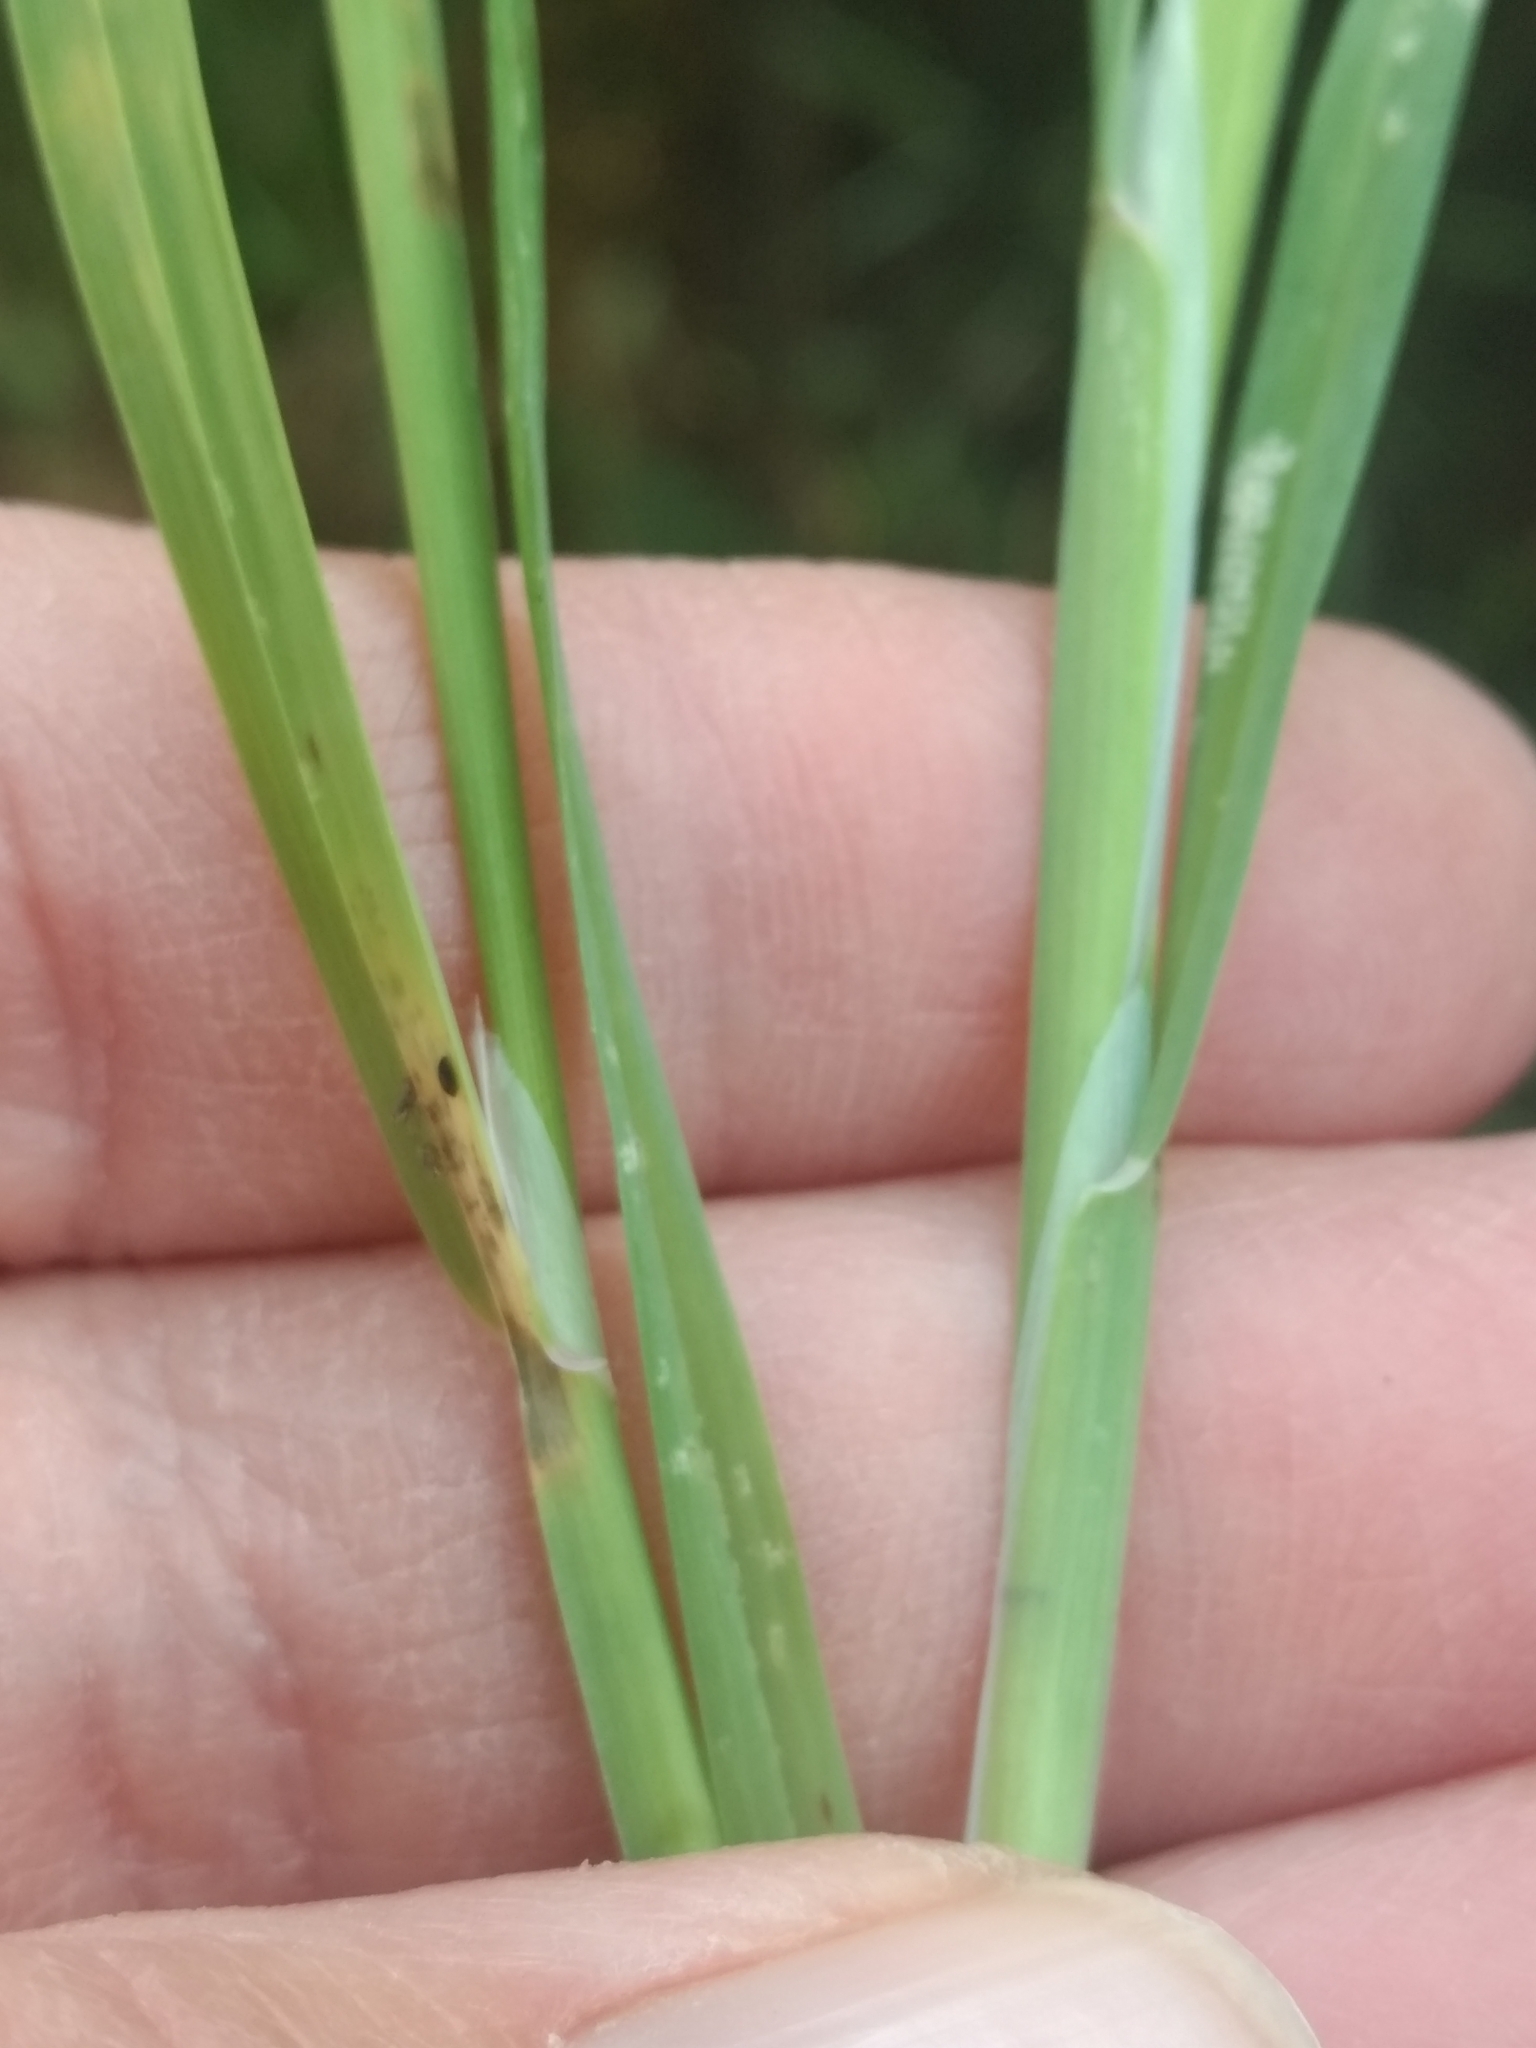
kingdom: Plantae
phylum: Tracheophyta
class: Liliopsida
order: Poales
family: Poaceae
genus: Lamarckia
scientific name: Lamarckia aurea
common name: Golden dog's-tail
